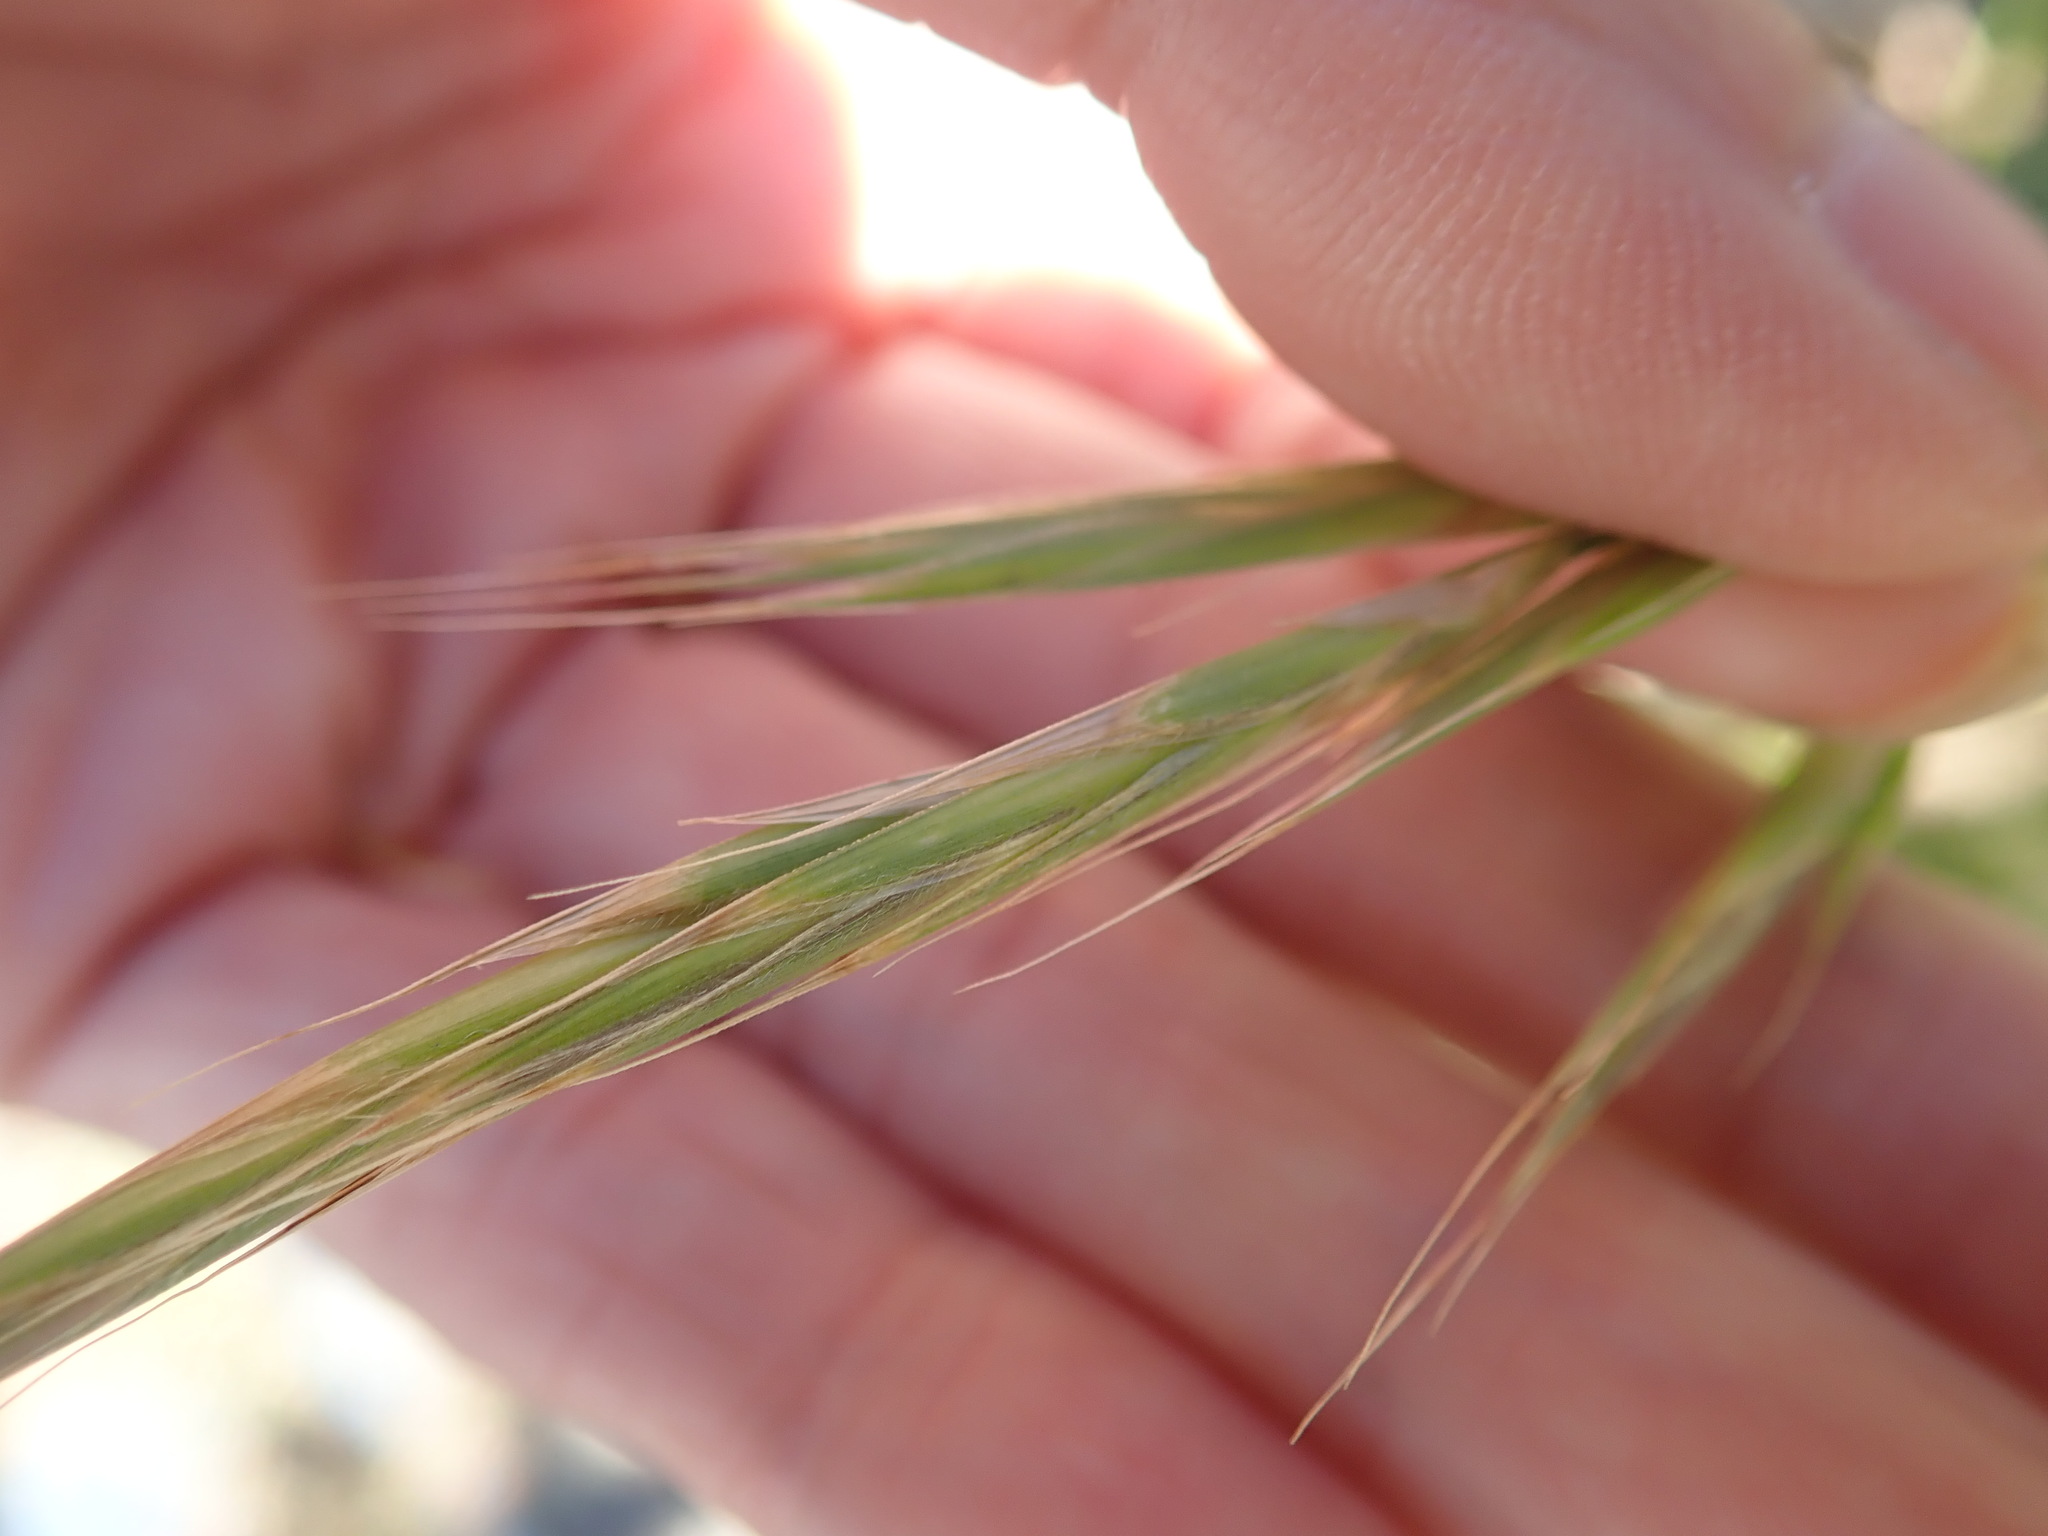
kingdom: Plantae
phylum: Tracheophyta
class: Liliopsida
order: Poales
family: Poaceae
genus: Bromus
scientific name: Bromus carinatus
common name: Mountain brome
